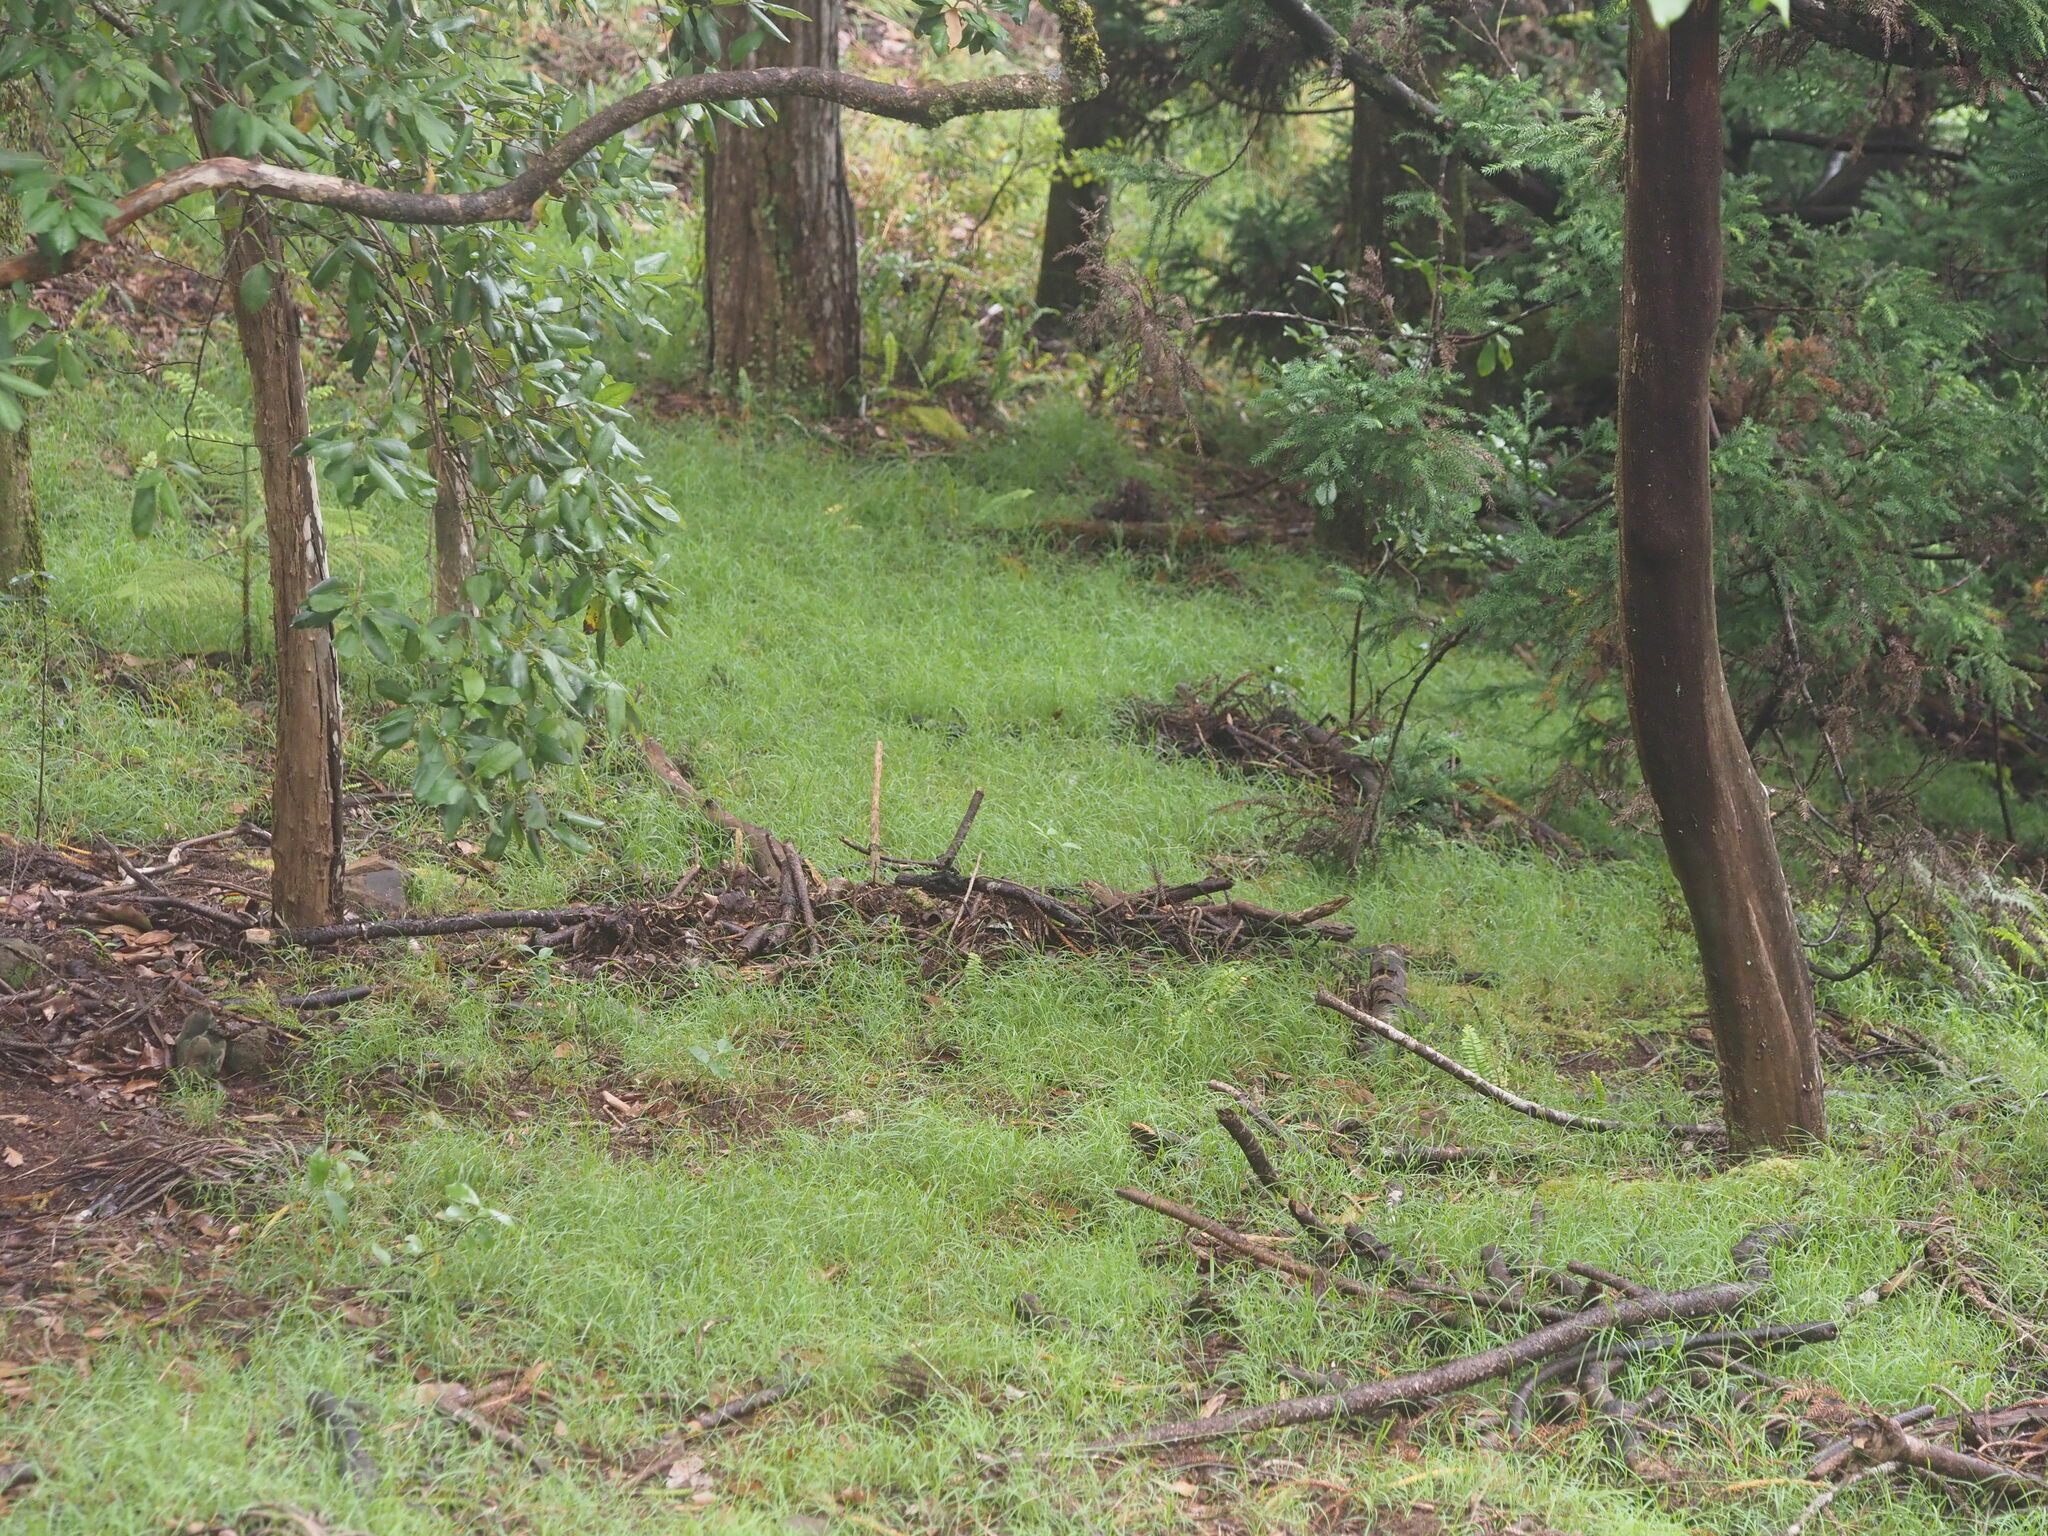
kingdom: Plantae
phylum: Tracheophyta
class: Liliopsida
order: Poales
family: Poaceae
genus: Microlaena
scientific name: Microlaena stipoides
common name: Meadow ricegrass
